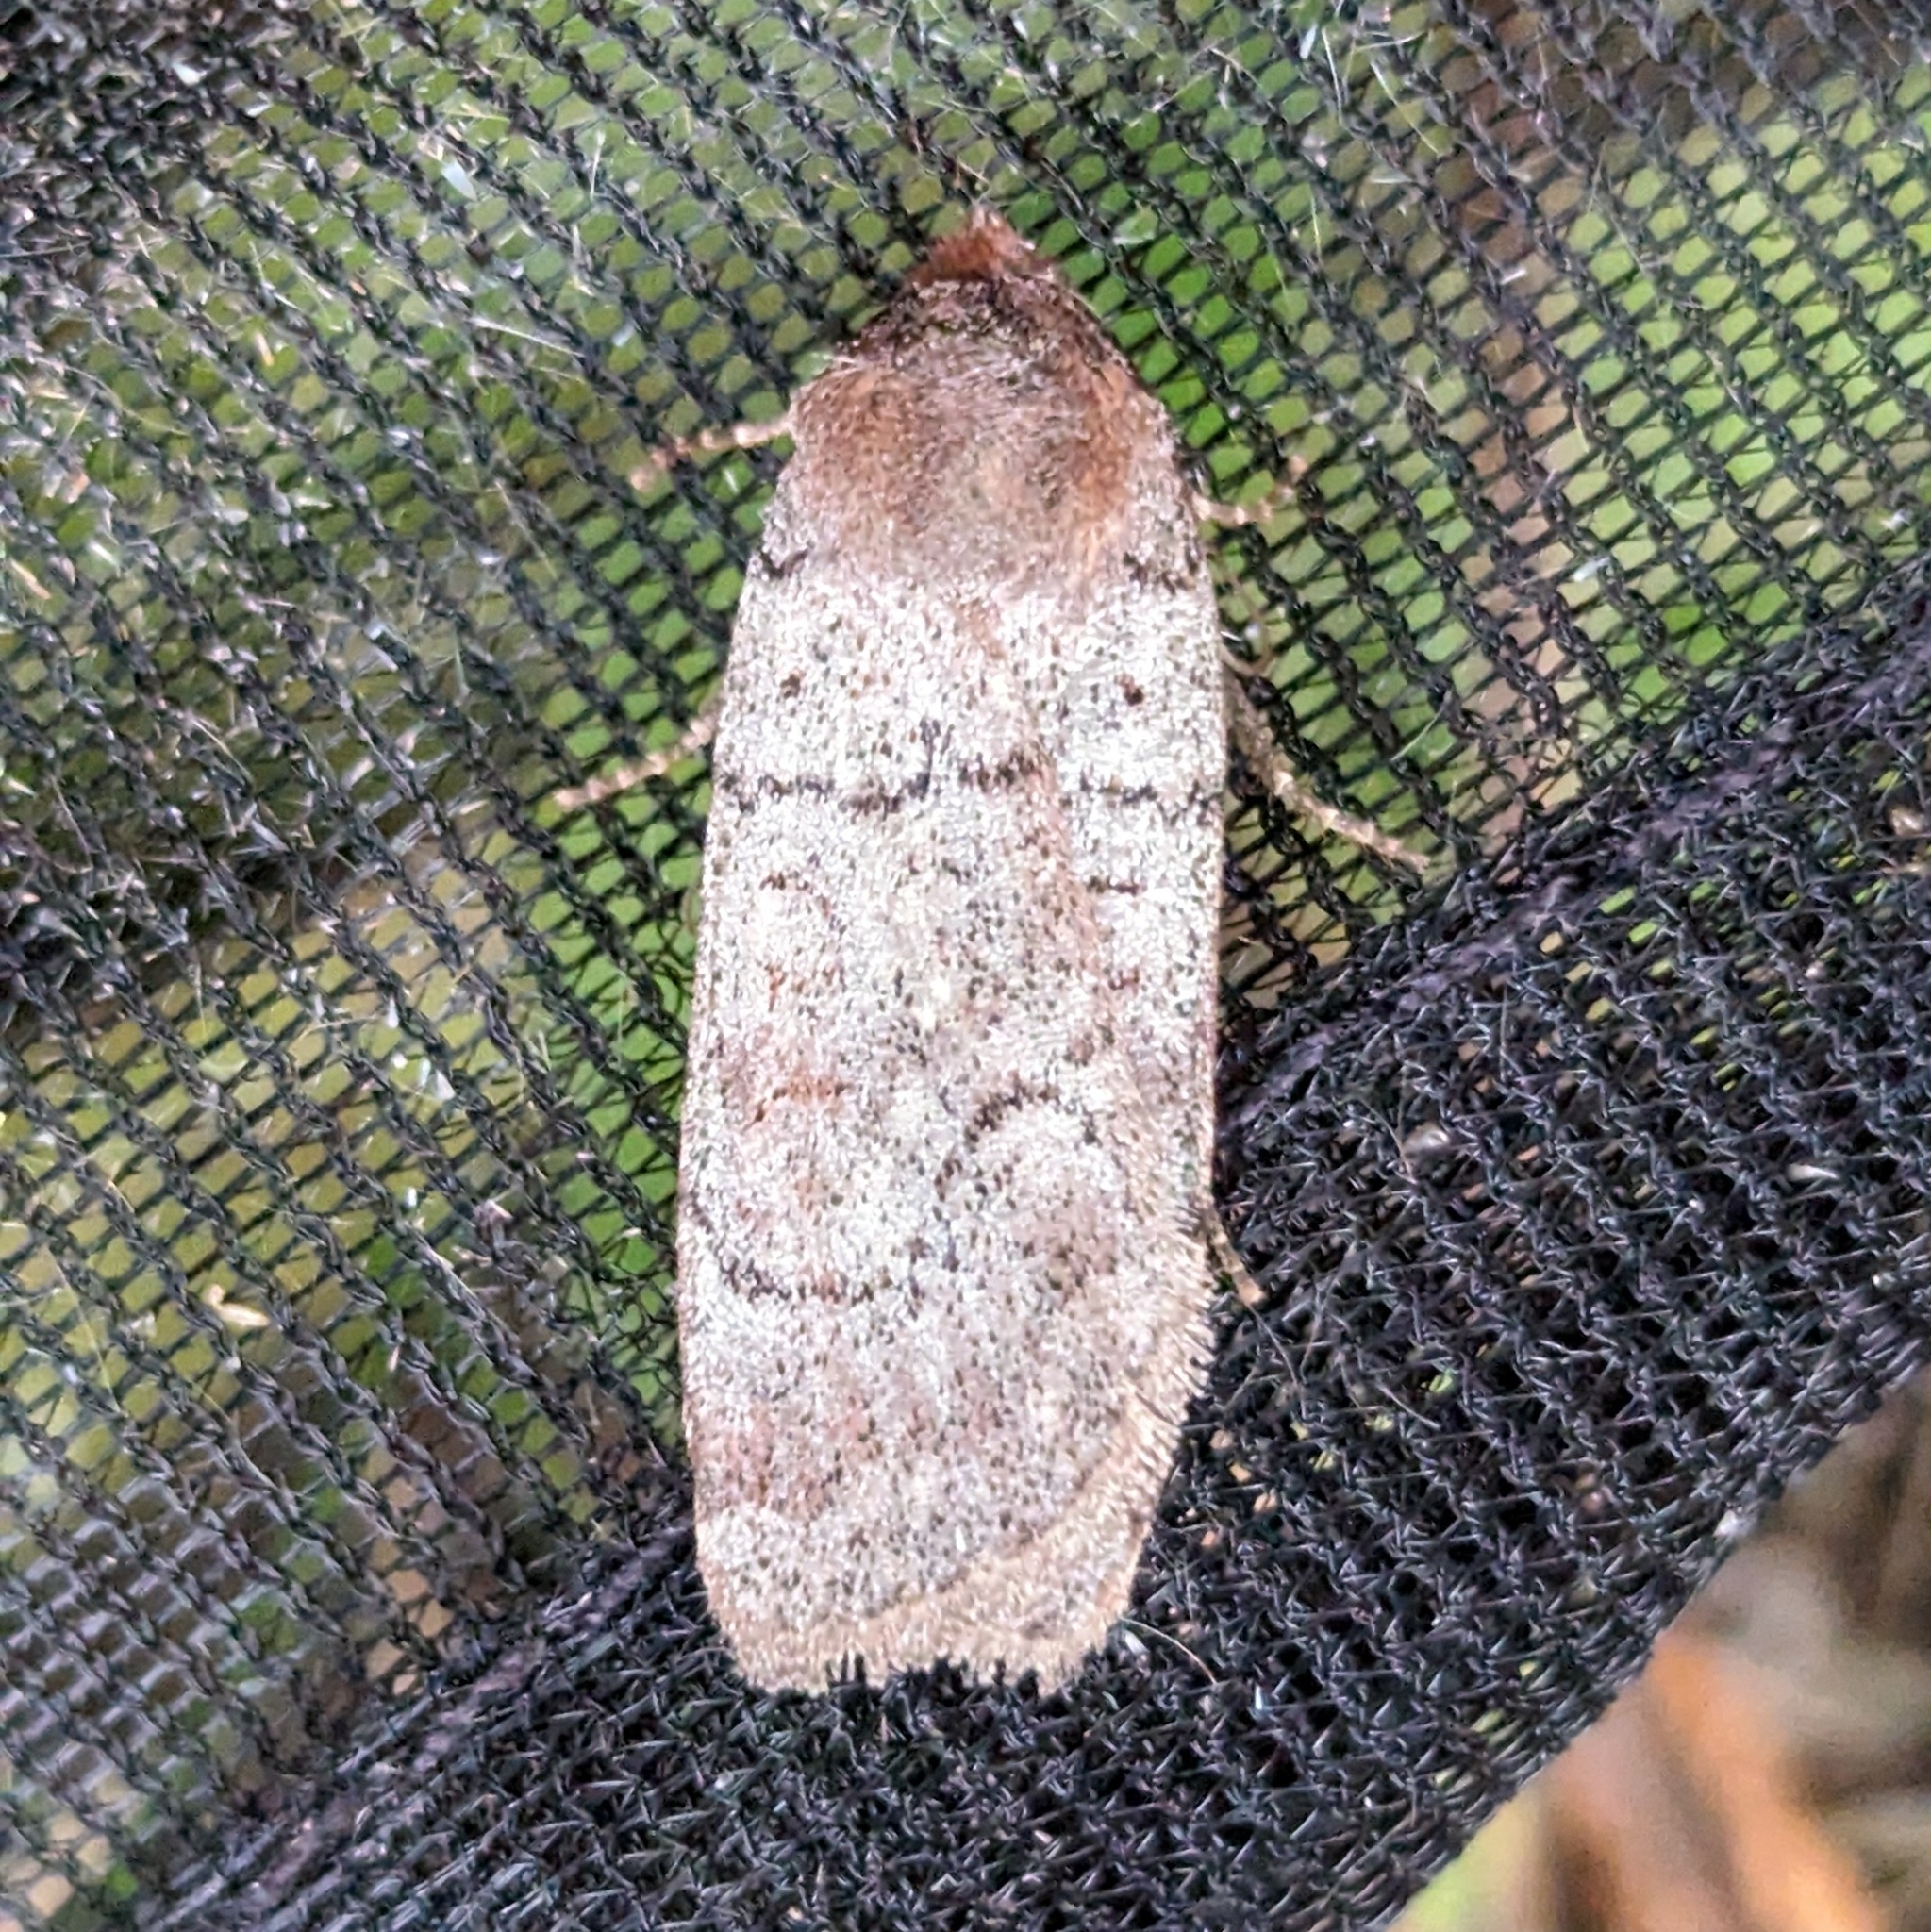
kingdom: Animalia
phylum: Arthropoda
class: Insecta
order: Lepidoptera
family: Noctuidae
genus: Protolampra
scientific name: Protolampra rufipectus
